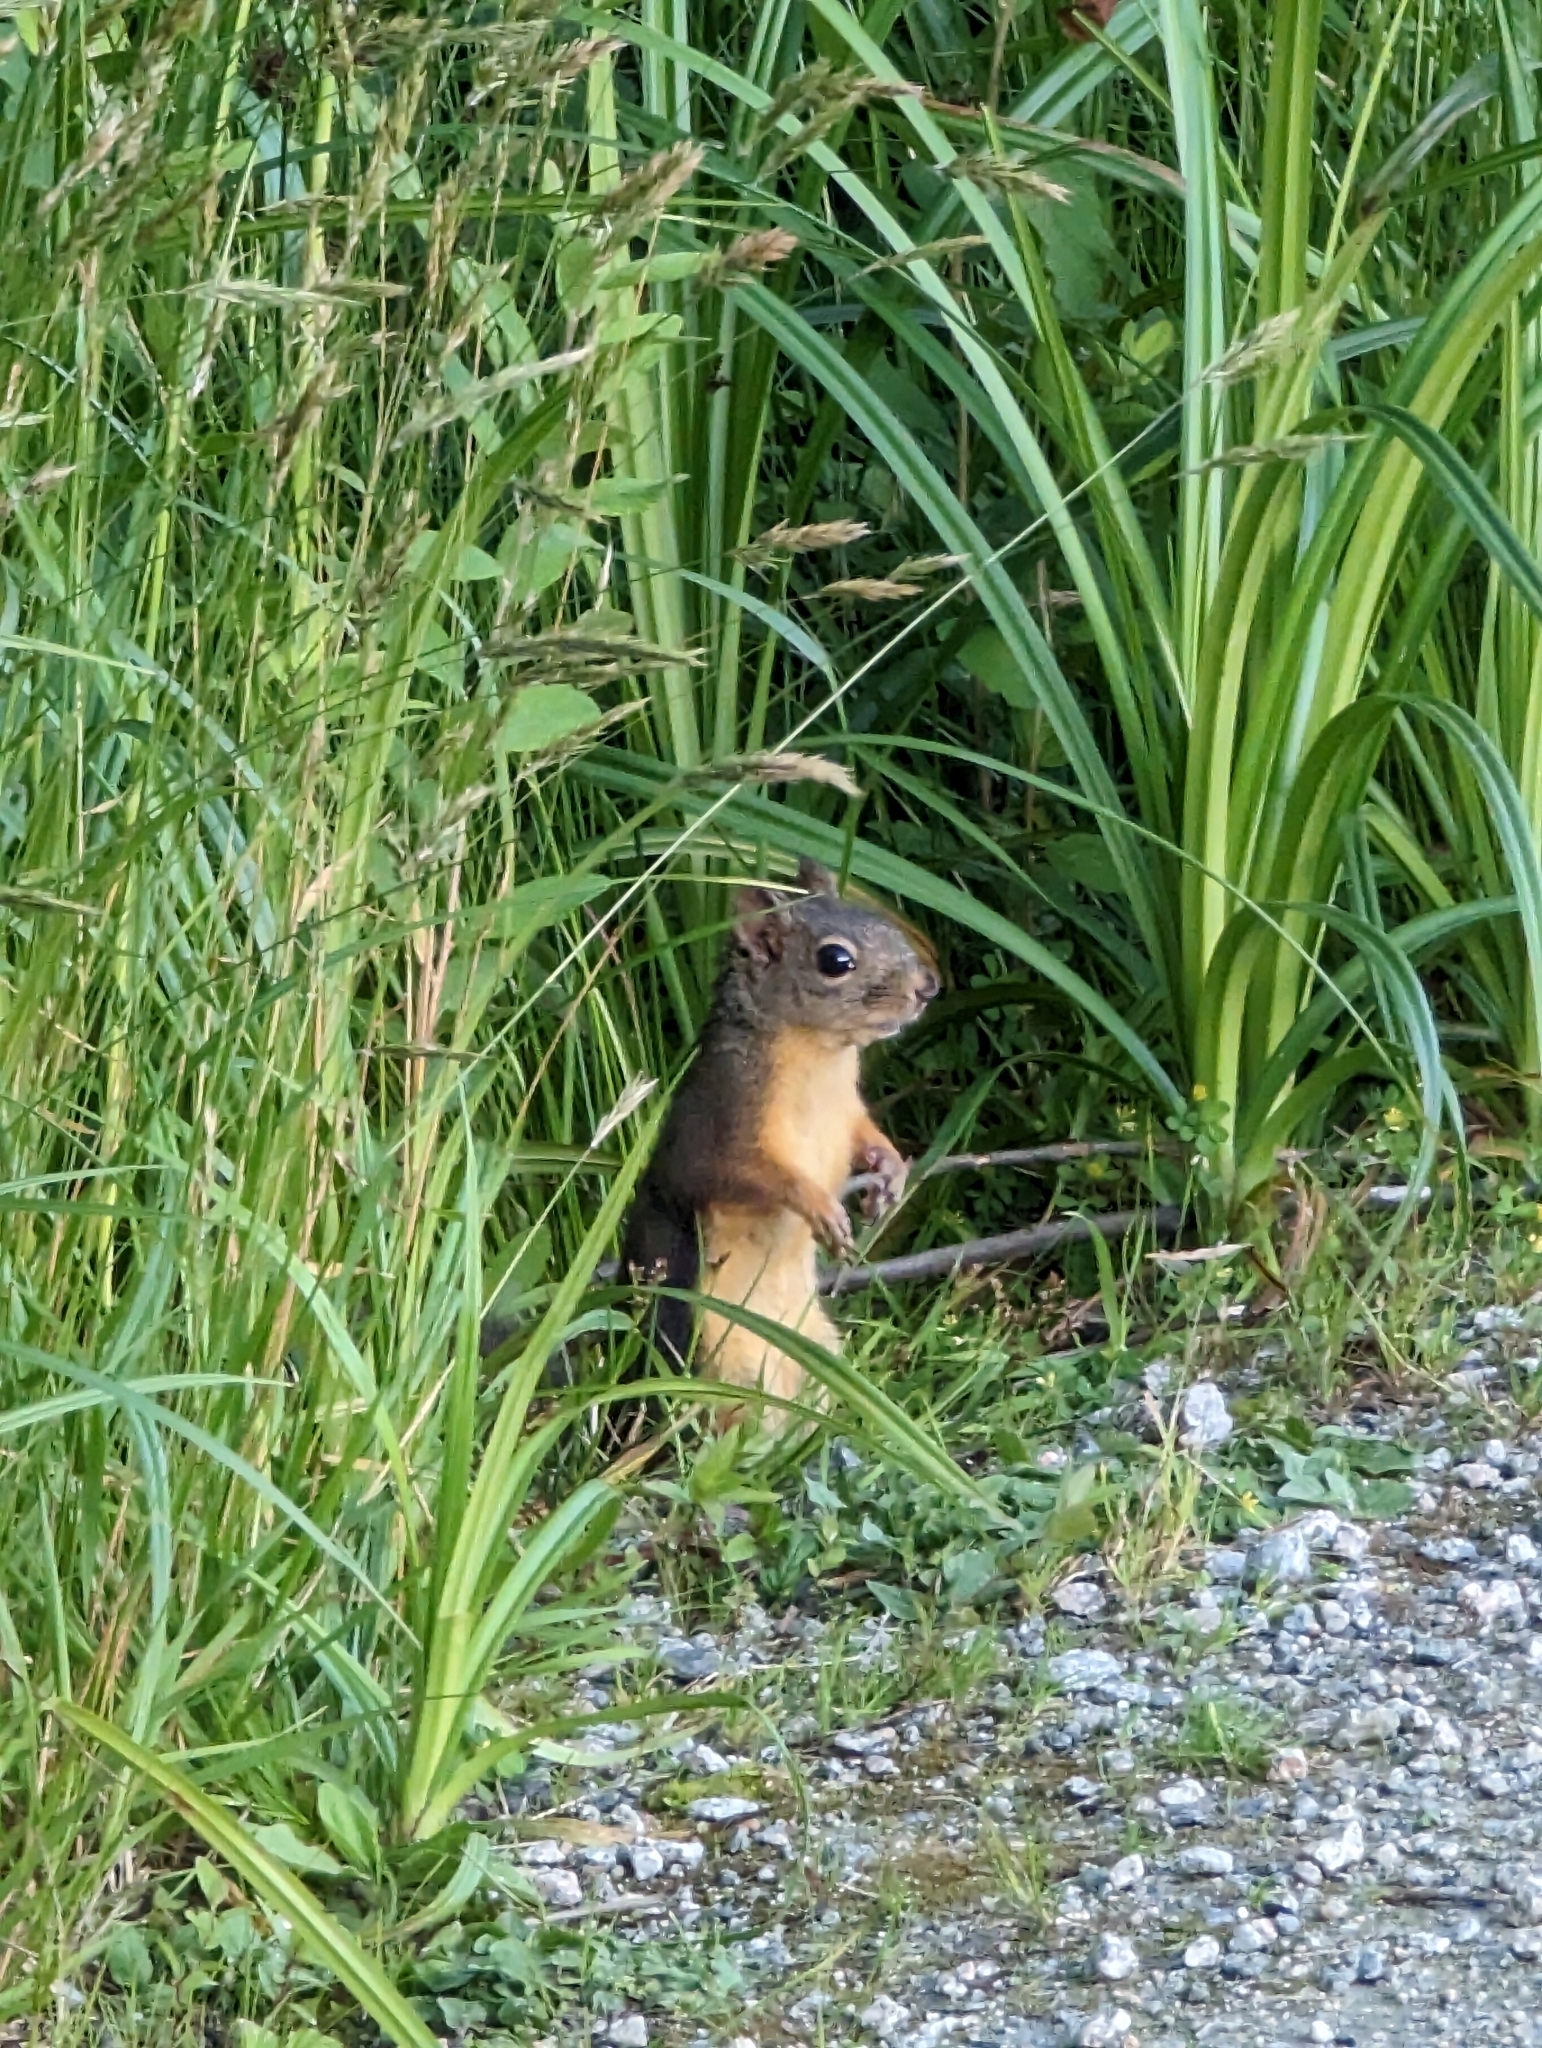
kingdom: Animalia
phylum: Chordata
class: Mammalia
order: Rodentia
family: Sciuridae
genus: Tamiasciurus
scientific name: Tamiasciurus douglasii
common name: Douglas's squirrel
